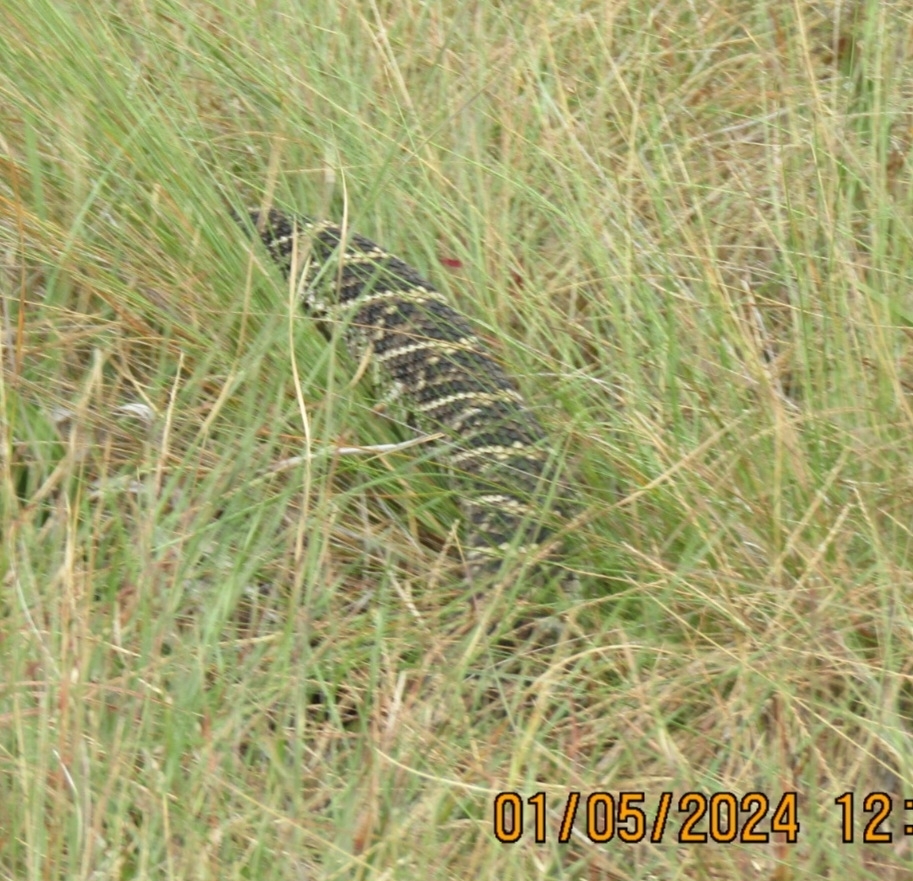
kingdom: Animalia
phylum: Chordata
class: Squamata
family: Viperidae
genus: Crotalus
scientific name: Crotalus adamanteus
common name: Eastern diamondback rattlesnake
